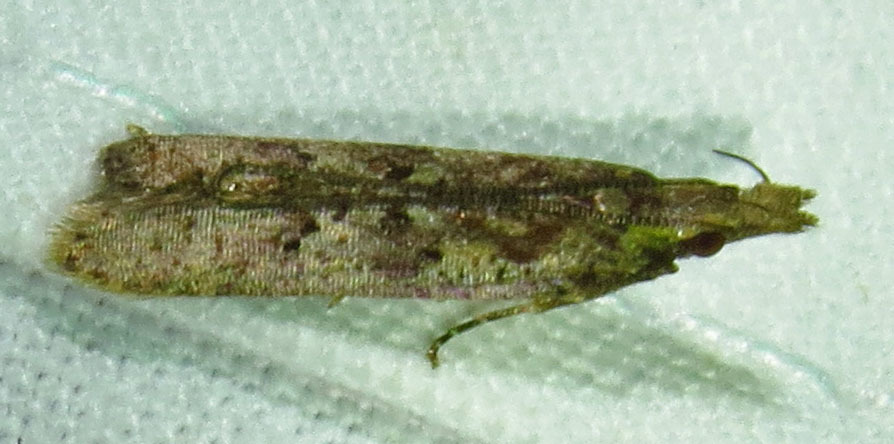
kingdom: Animalia
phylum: Arthropoda
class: Insecta
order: Lepidoptera
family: Gelechiidae
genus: Dichomeris
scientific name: Dichomeris ligulella
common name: Moth
